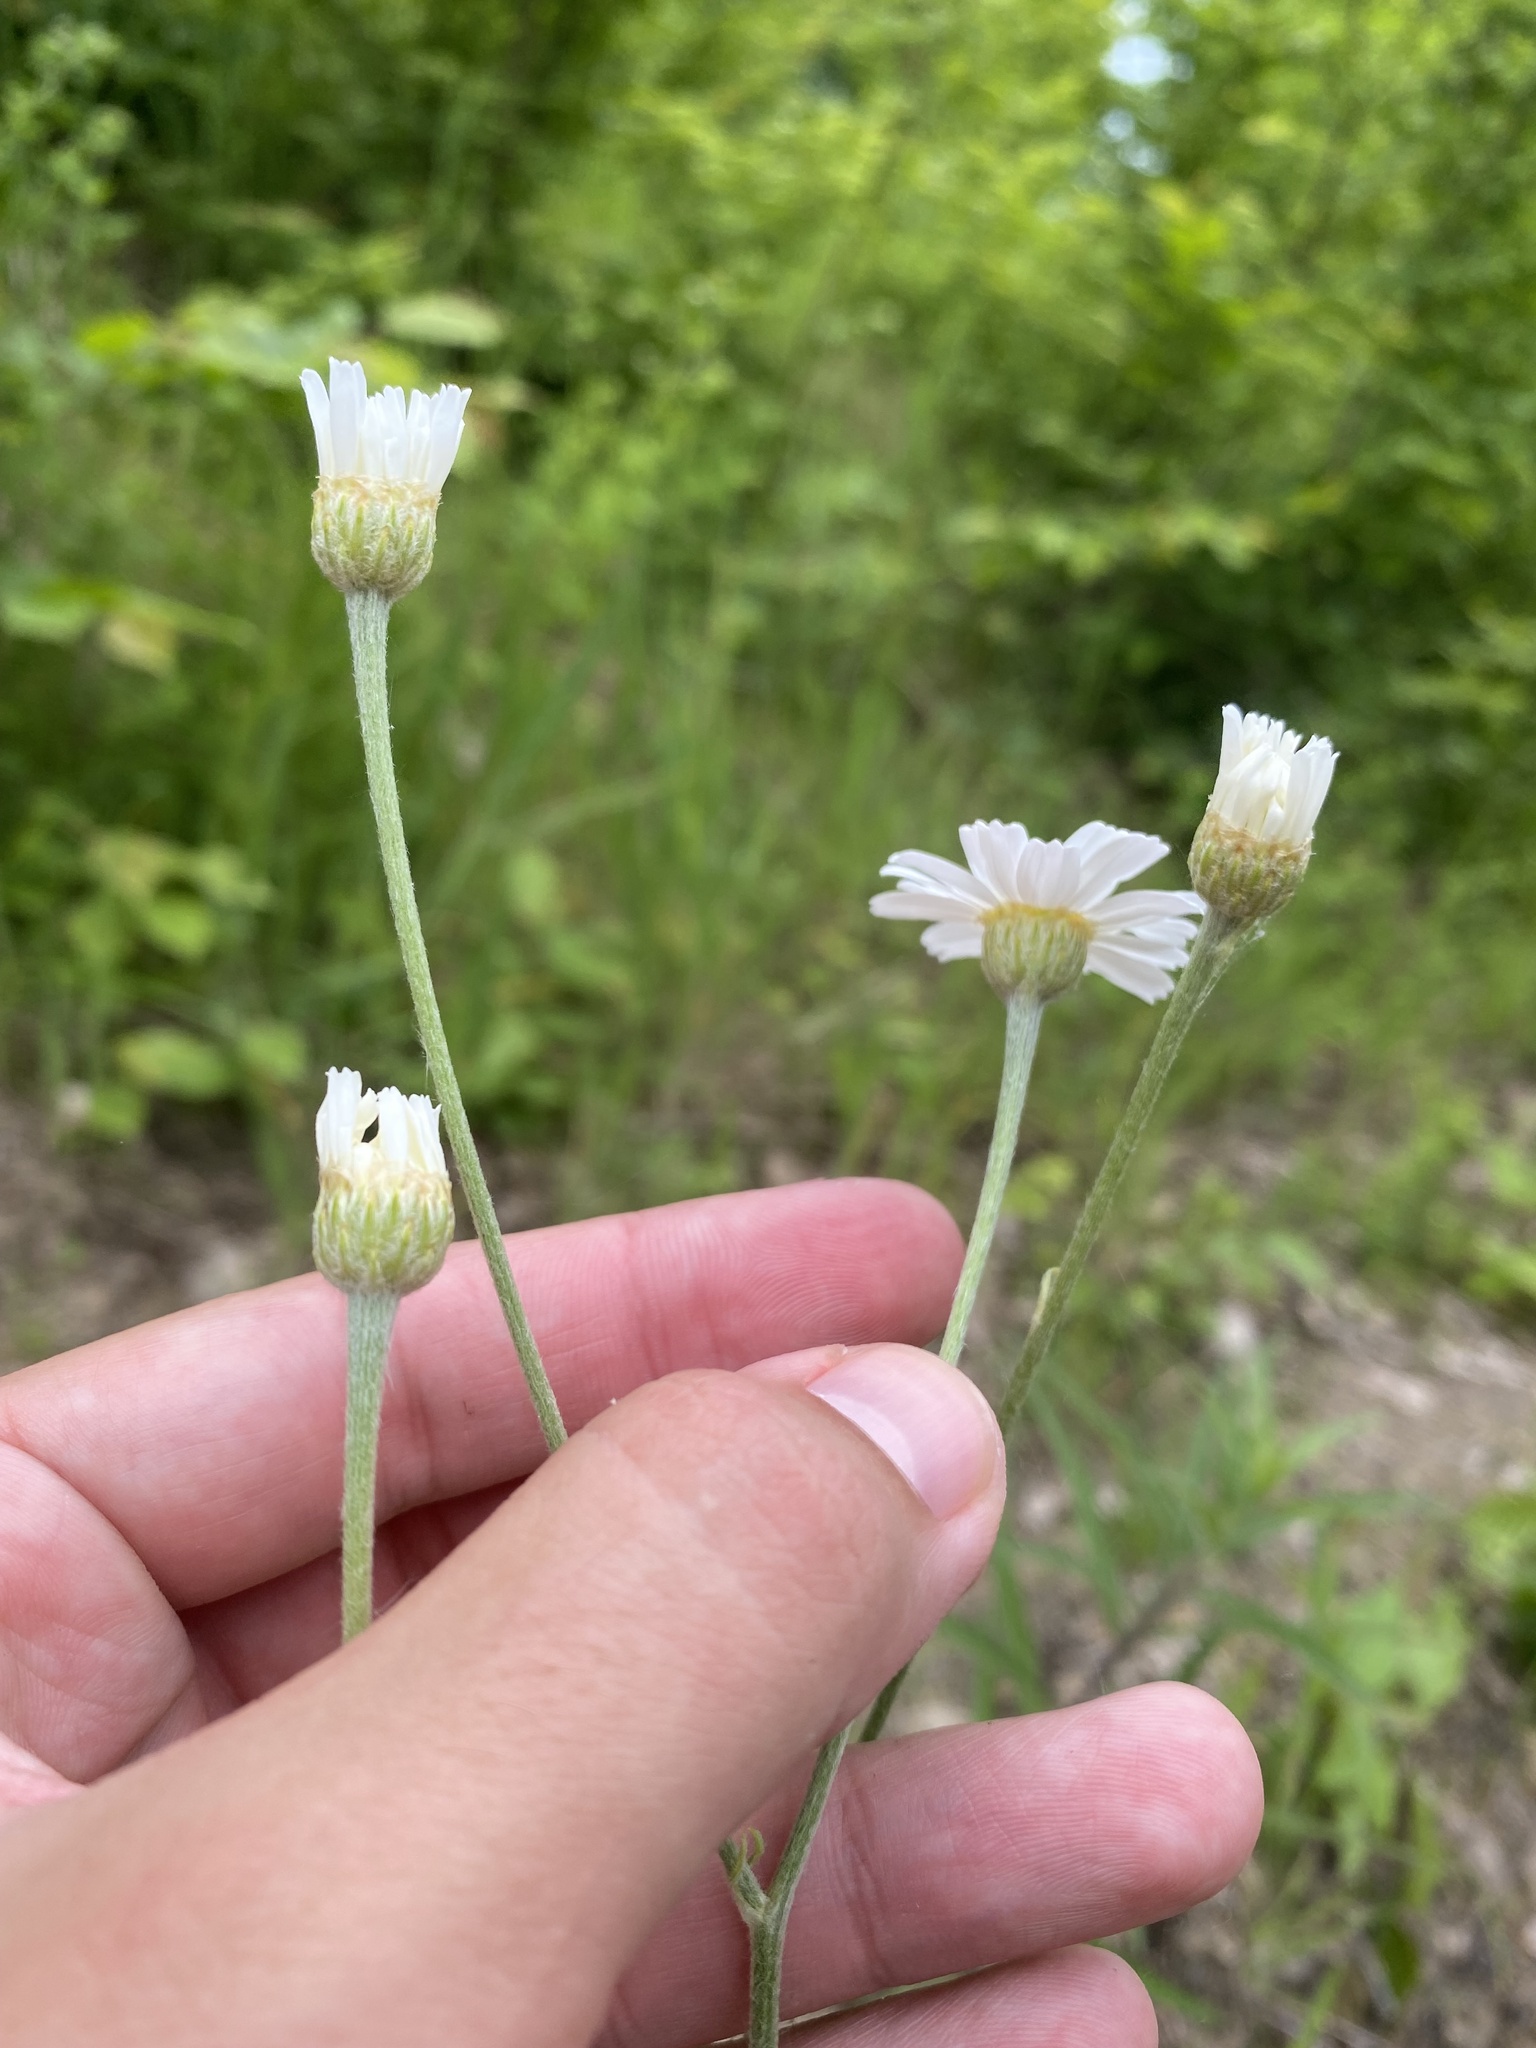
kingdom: Plantae
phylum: Tracheophyta
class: Magnoliopsida
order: Asterales
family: Asteraceae
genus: Tanacetum
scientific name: Tanacetum poteriifolium
